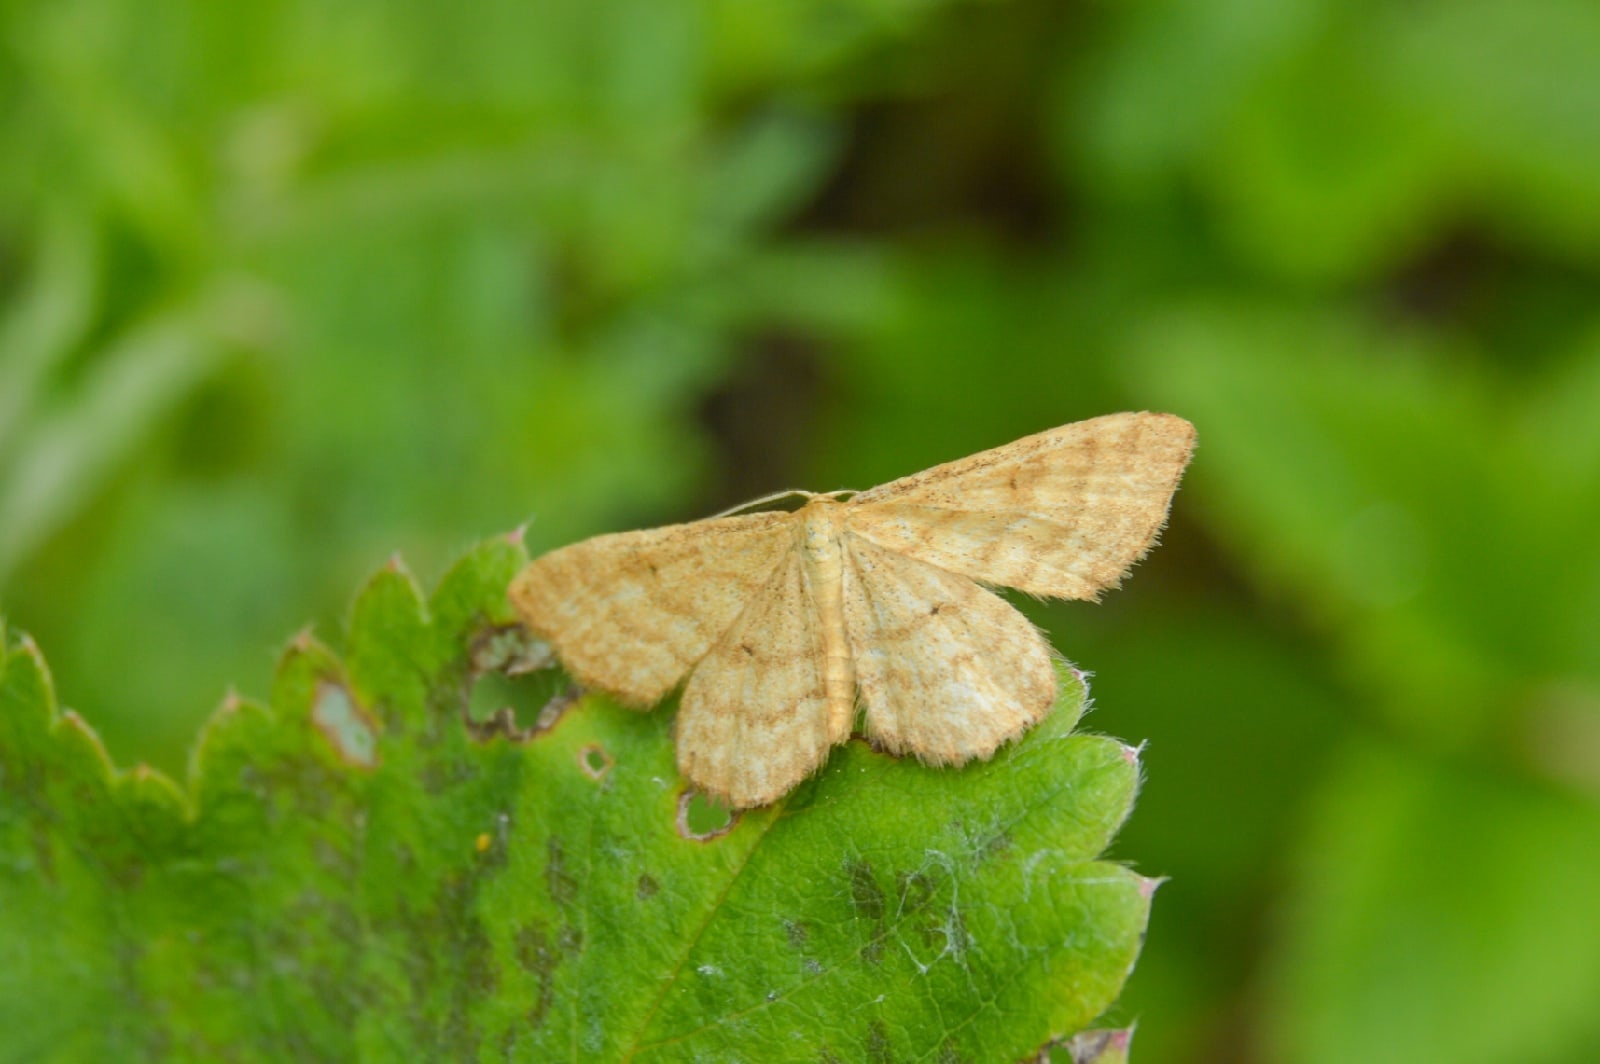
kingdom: Animalia
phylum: Arthropoda
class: Insecta
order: Lepidoptera
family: Geometridae
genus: Idaea
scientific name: Idaea humiliata
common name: Isle of wight wave
